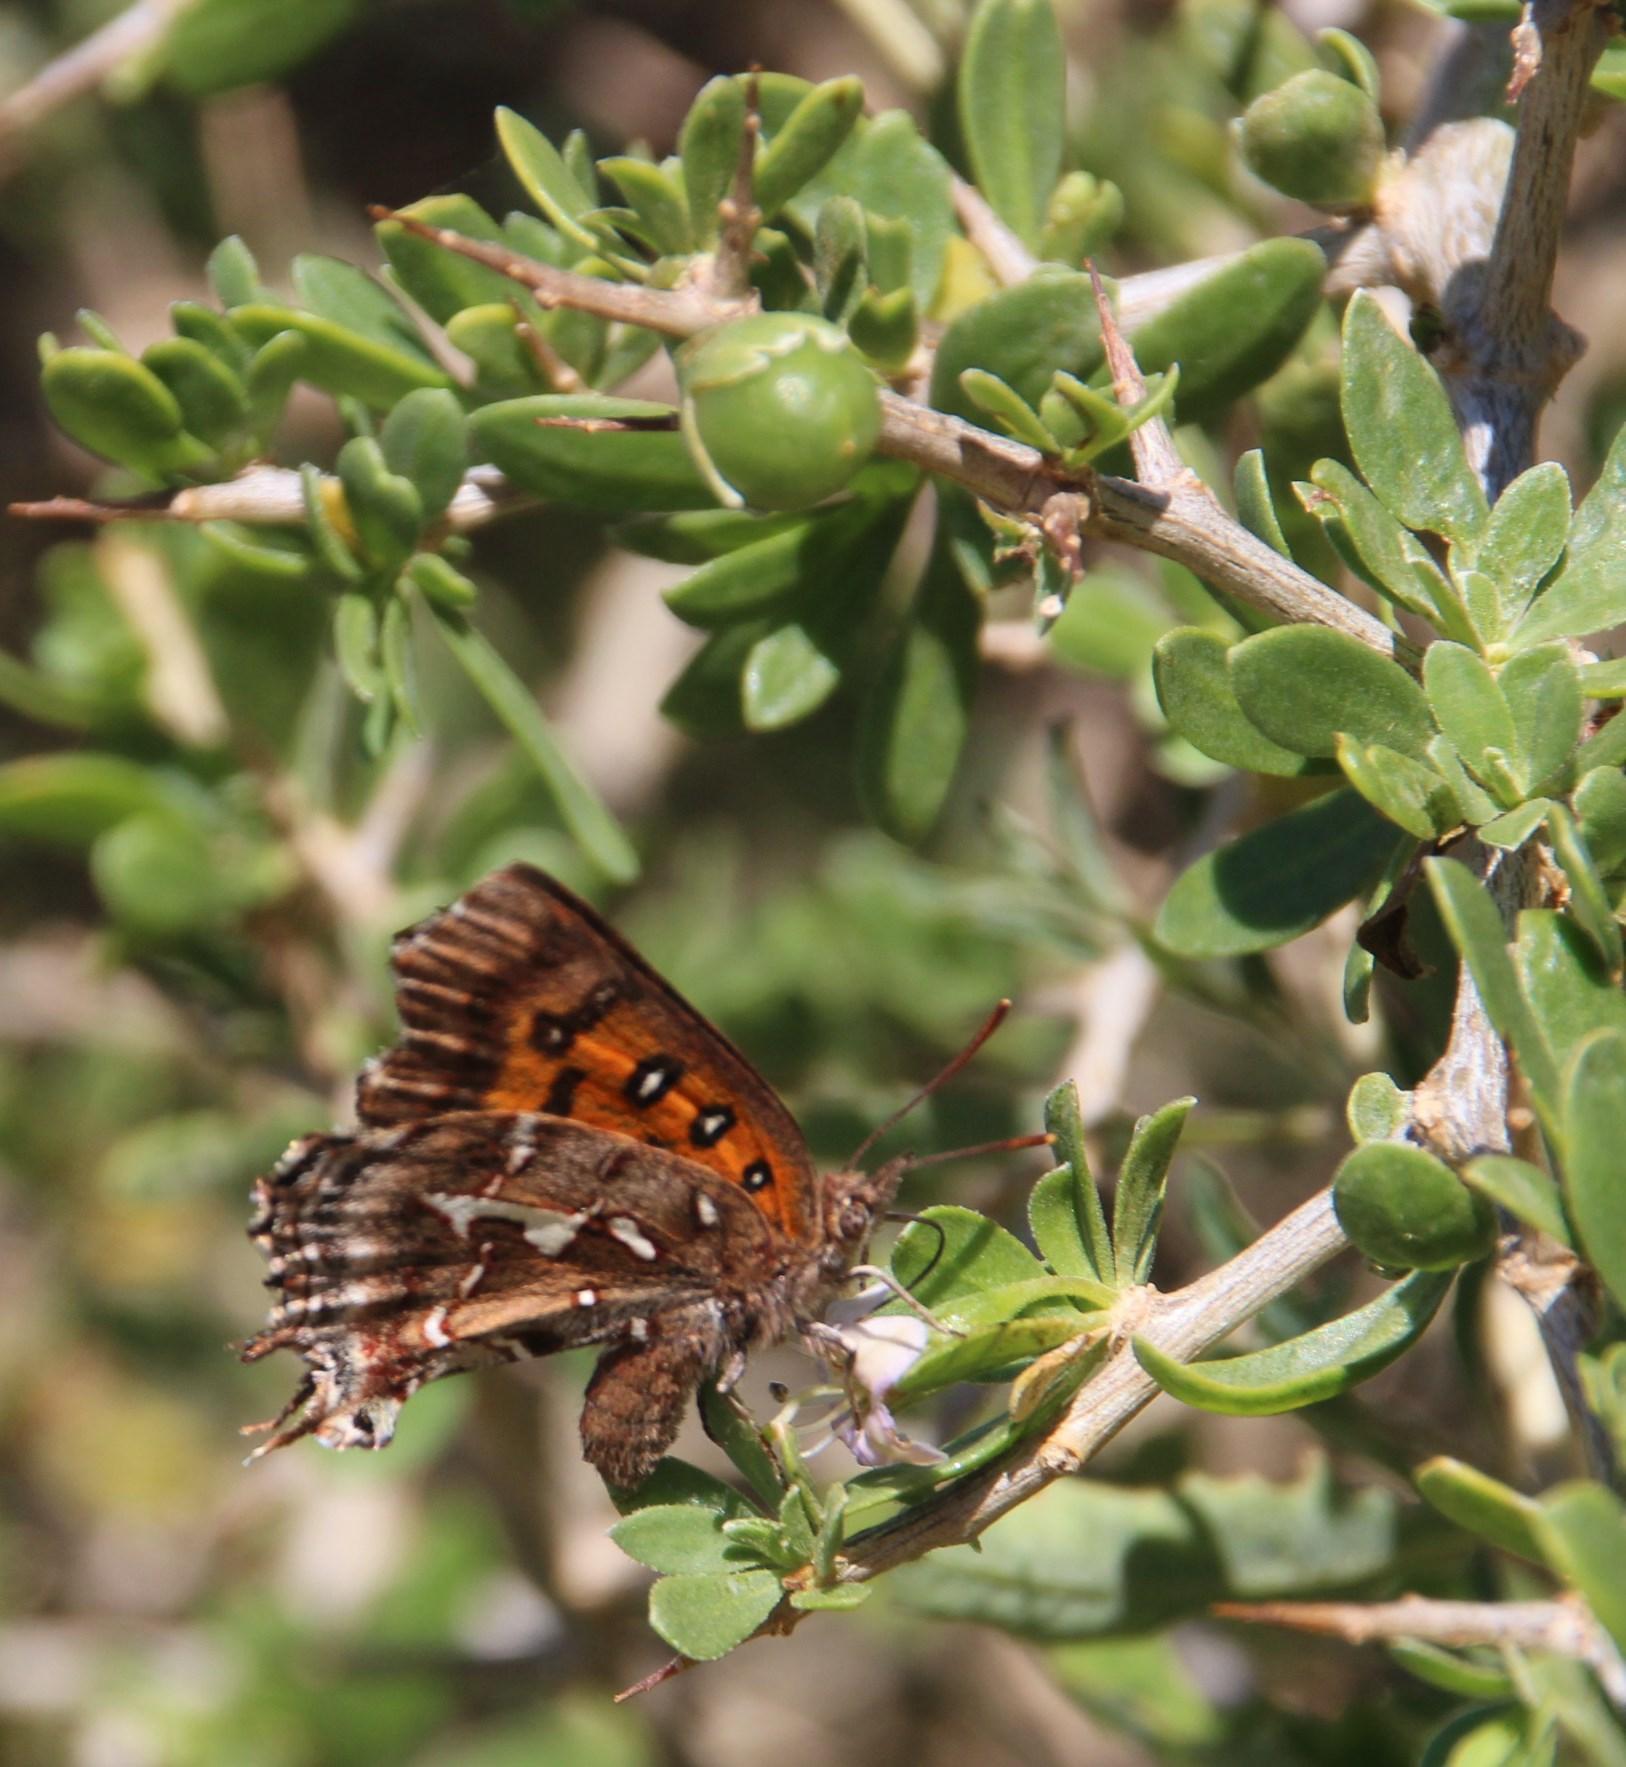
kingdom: Animalia
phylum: Arthropoda
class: Insecta
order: Lepidoptera
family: Lycaenidae
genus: Phasis
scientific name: Phasis thero
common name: Silver arrowhead
